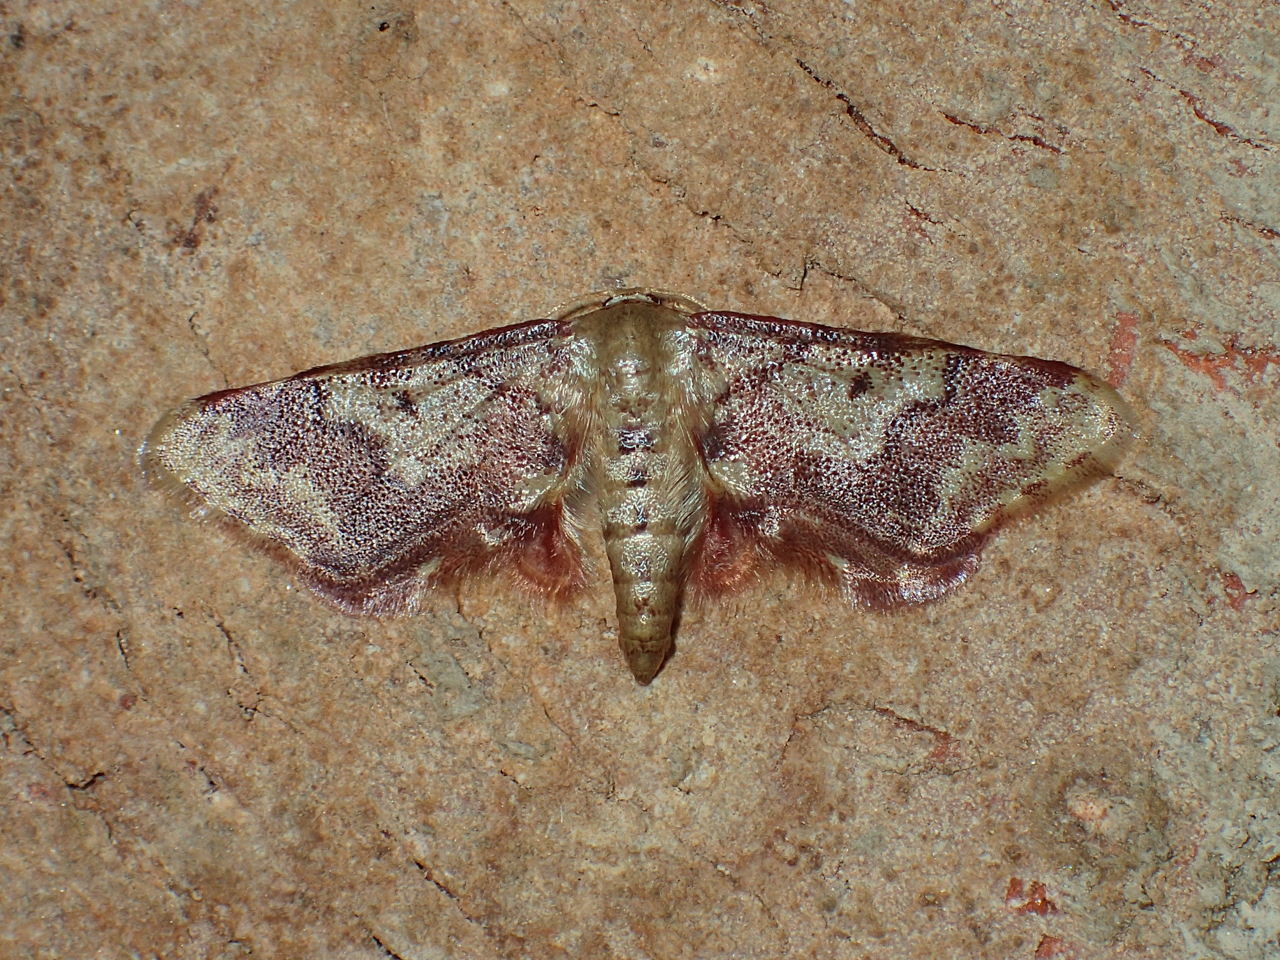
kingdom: Animalia
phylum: Arthropoda
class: Insecta
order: Lepidoptera
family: Geometridae
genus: Idaea
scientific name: Idaea furciferata
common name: Notch-winged wave
